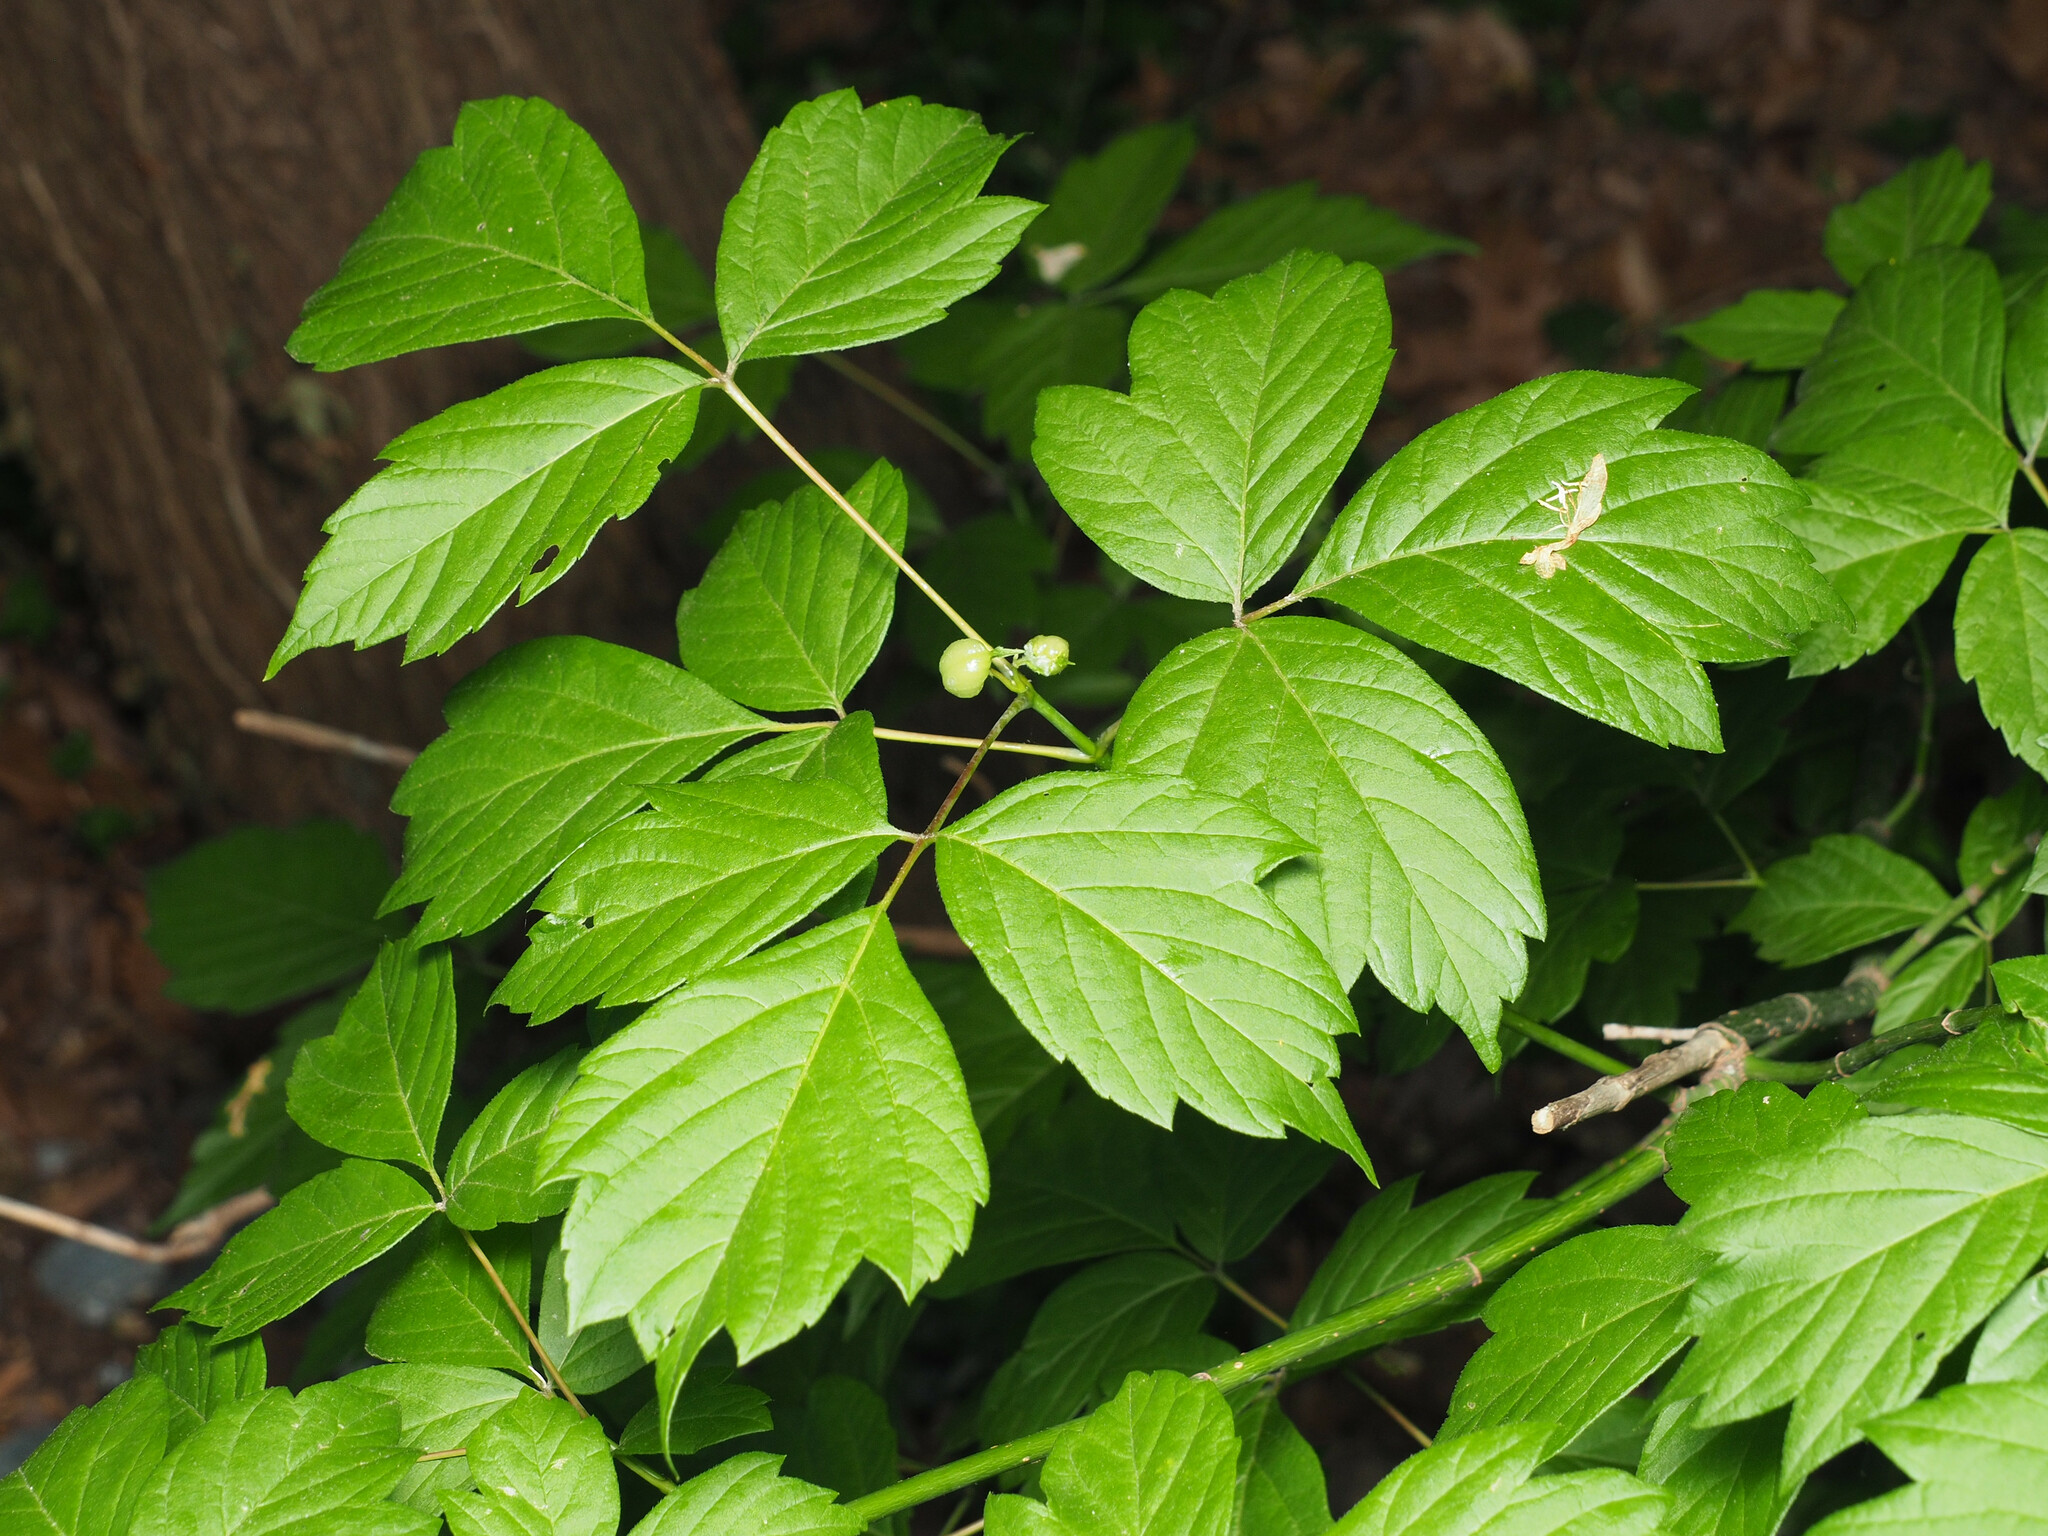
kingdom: Animalia
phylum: Arthropoda
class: Insecta
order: Diptera
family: Cecidomyiidae
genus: Contarinia
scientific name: Contarinia negundinis
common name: Boxelder budgall midge
